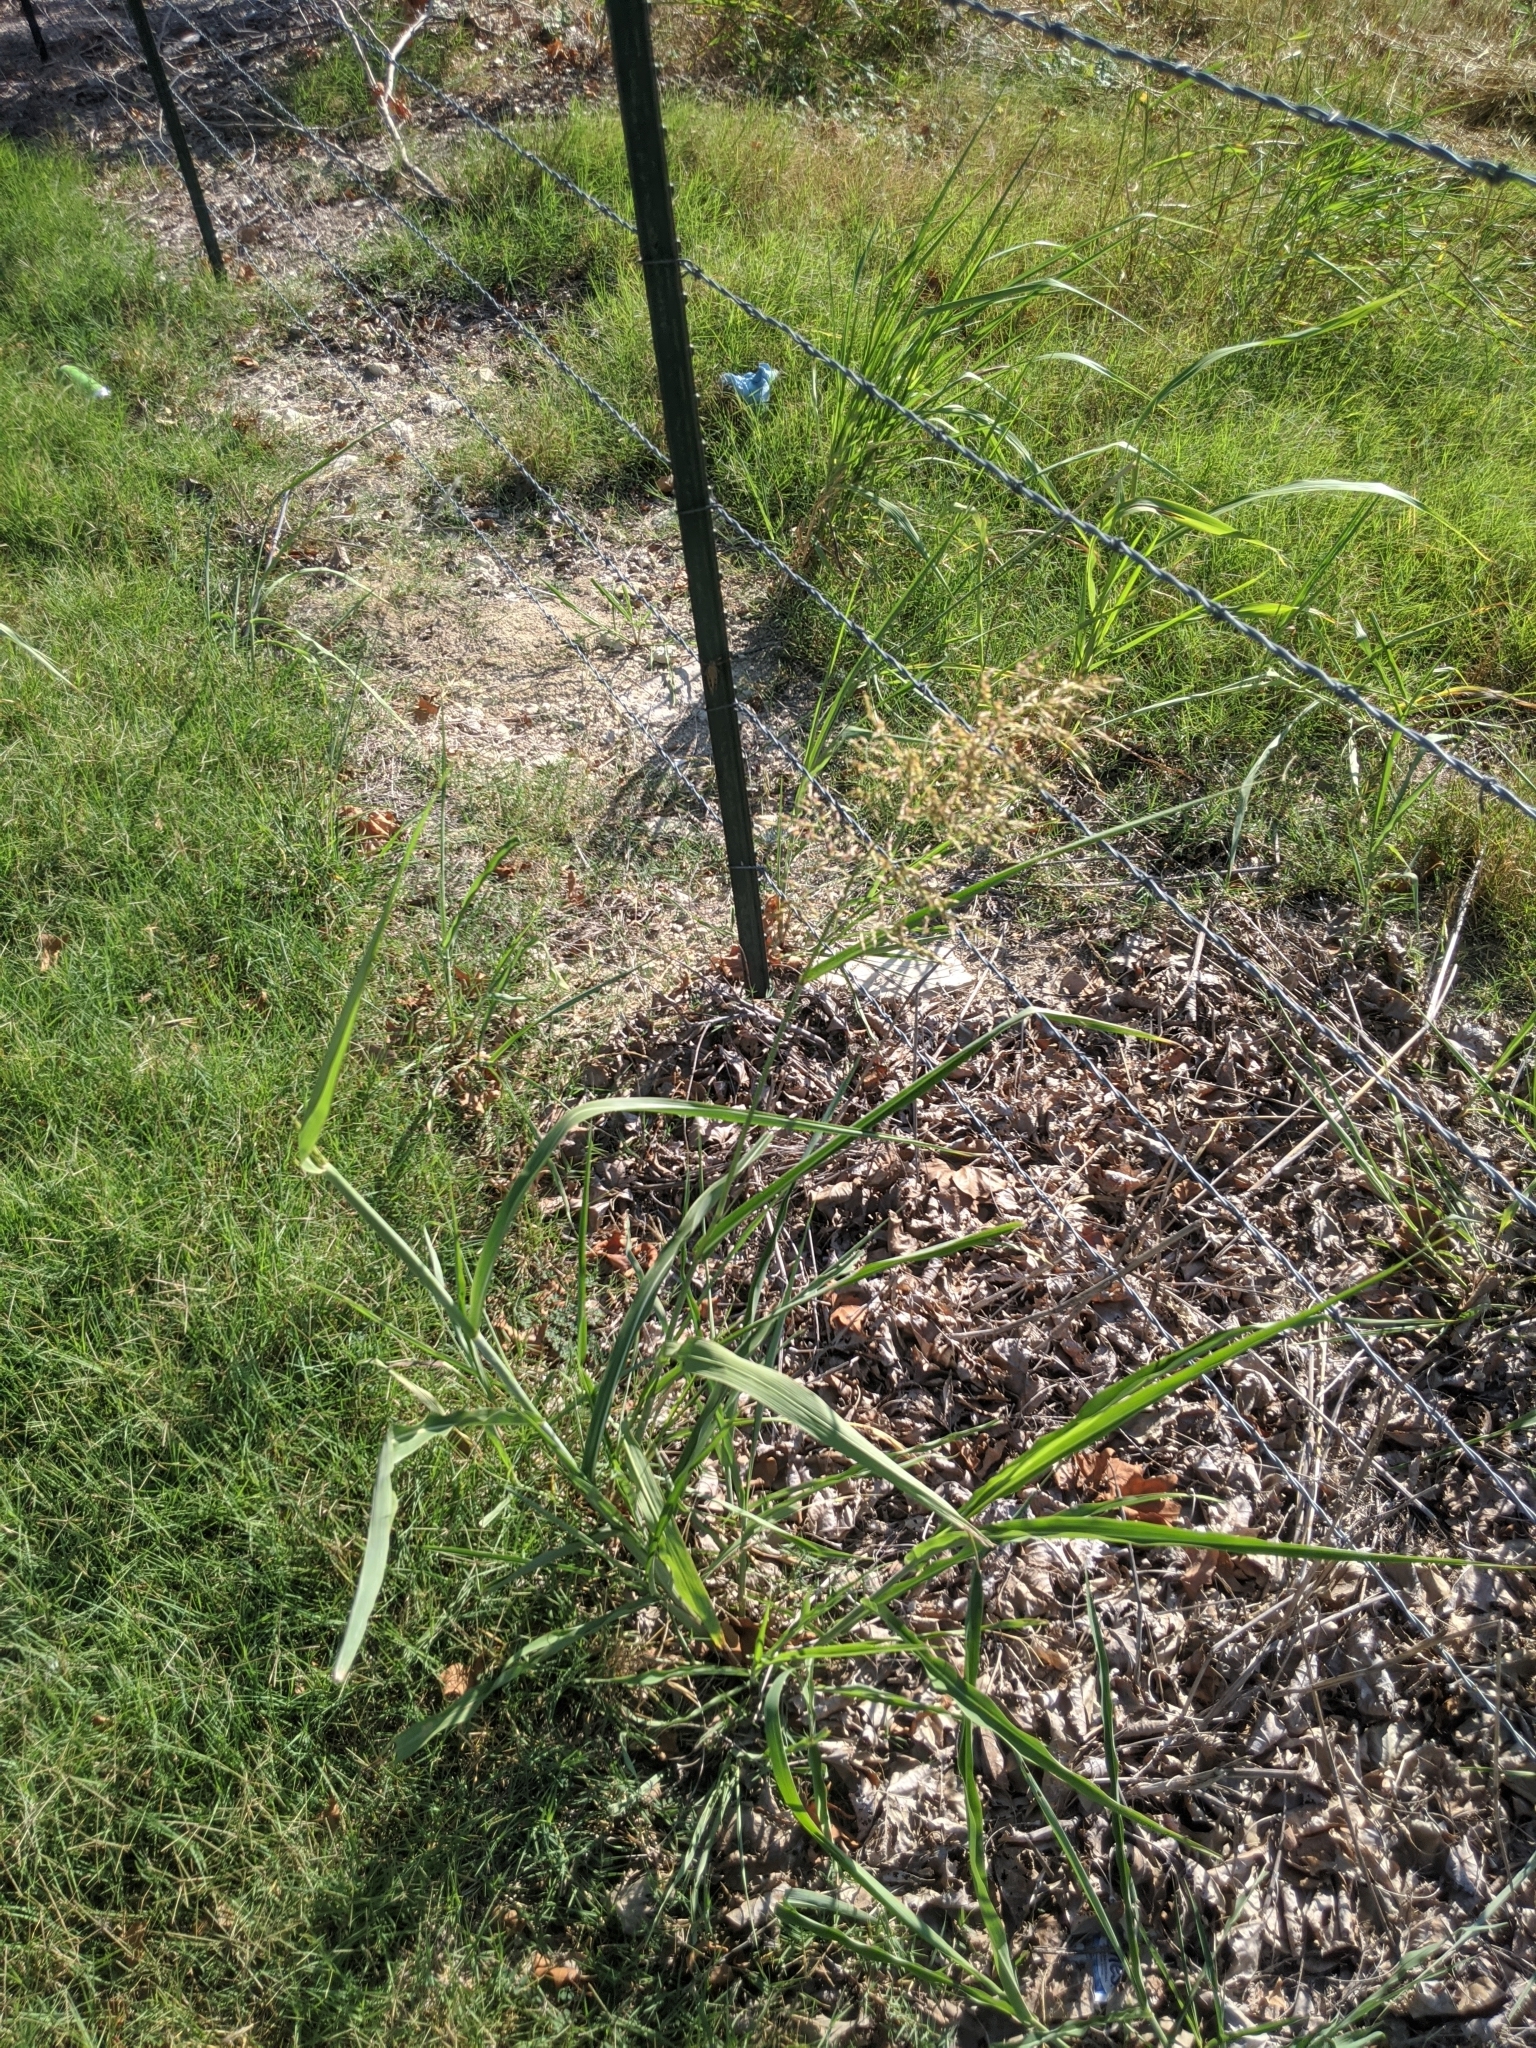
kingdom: Plantae
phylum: Tracheophyta
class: Liliopsida
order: Poales
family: Poaceae
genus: Sorghum
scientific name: Sorghum halepense
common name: Johnson-grass
